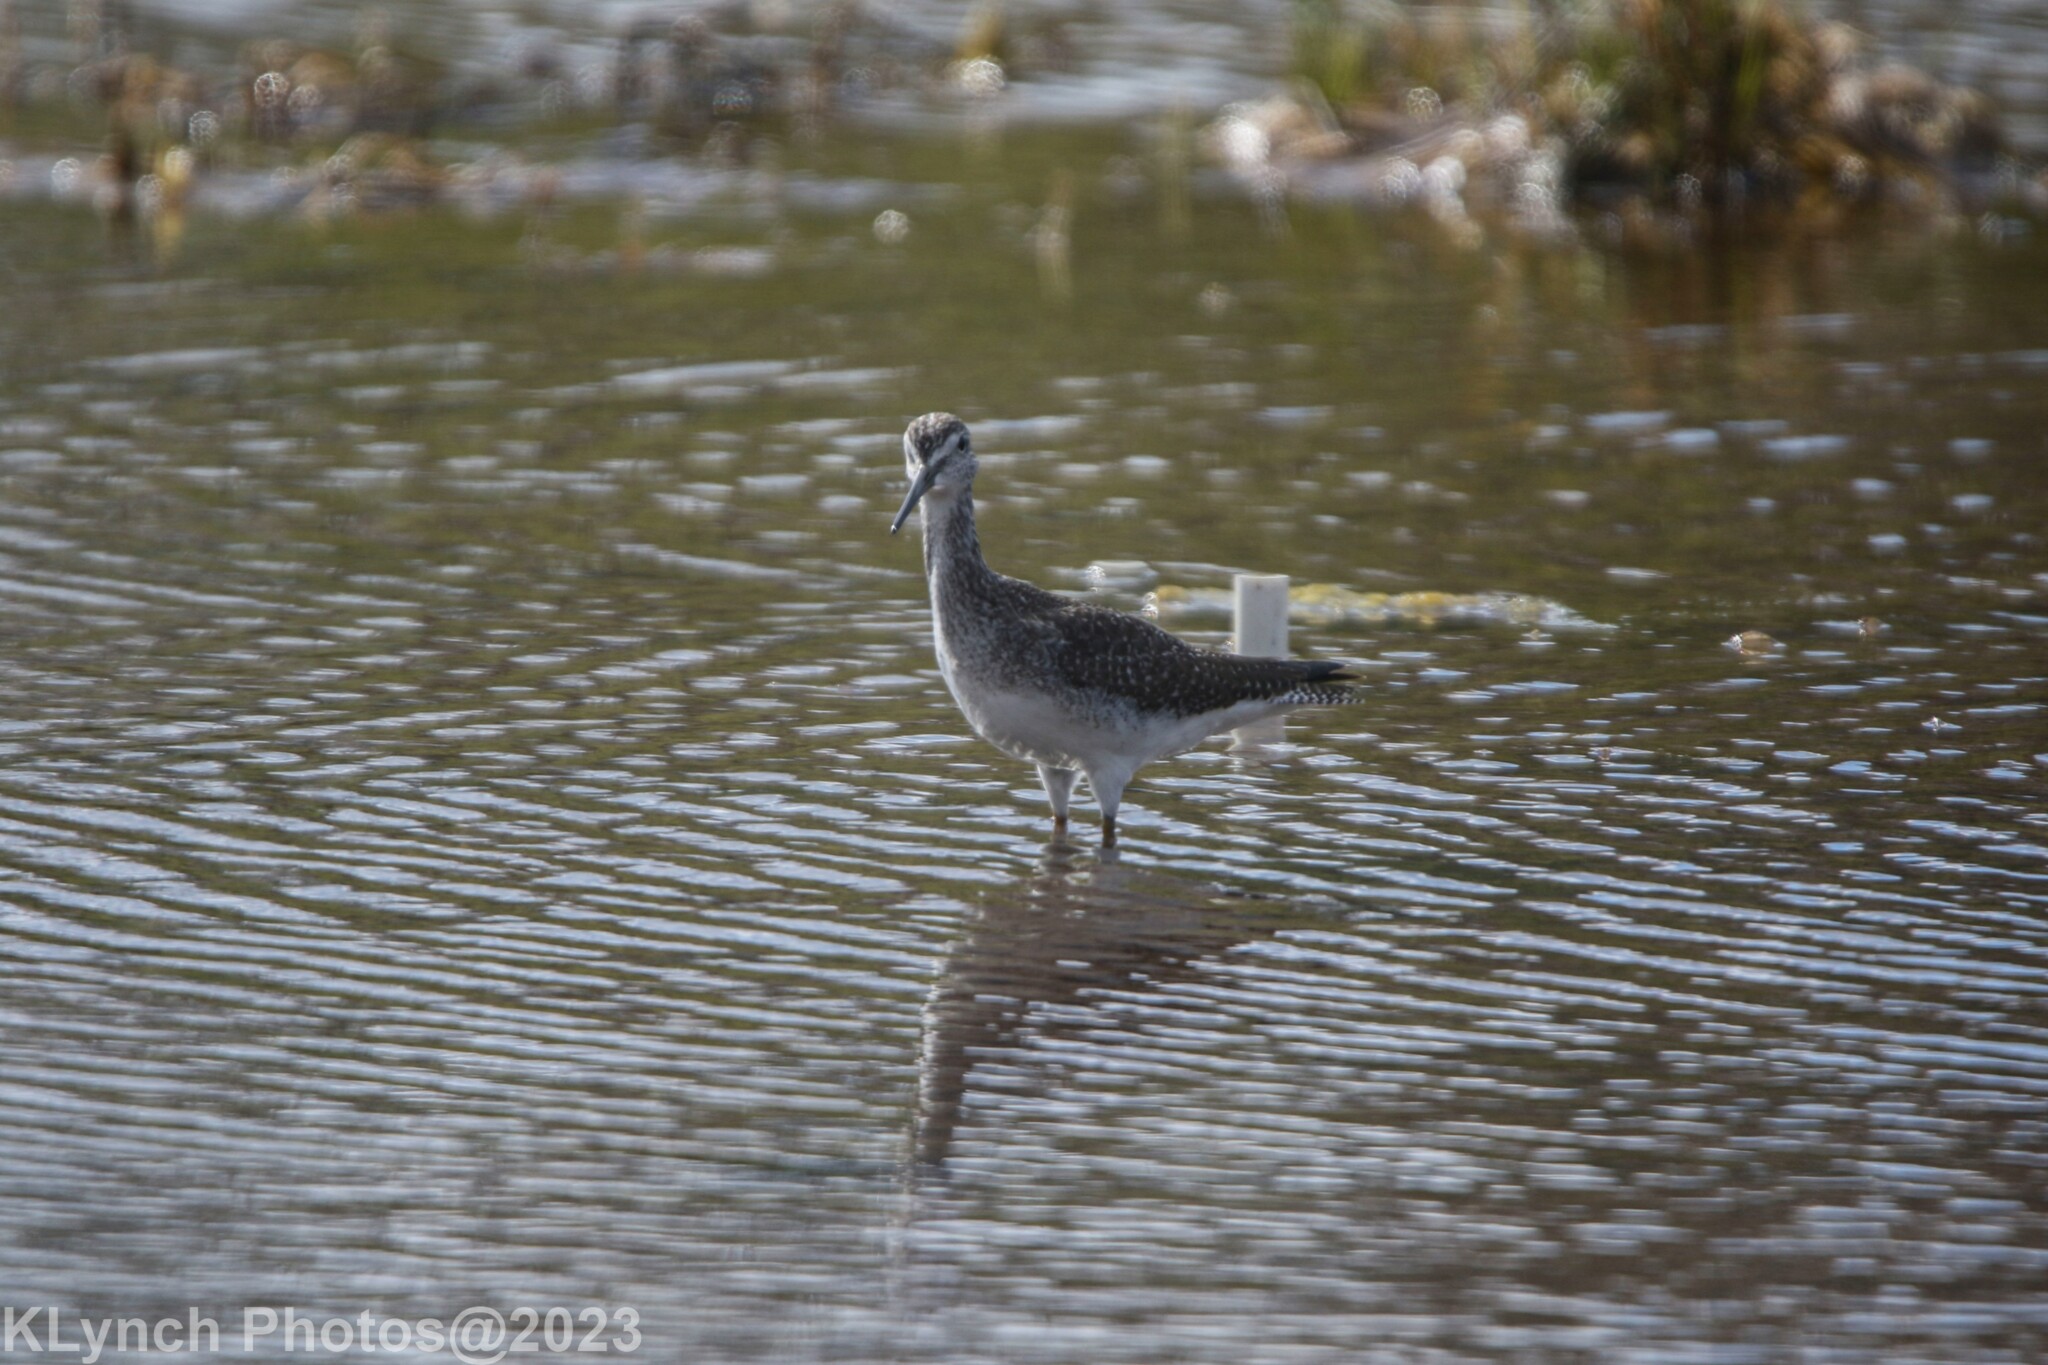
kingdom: Animalia
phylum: Chordata
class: Aves
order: Charadriiformes
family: Scolopacidae
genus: Tringa
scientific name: Tringa melanoleuca
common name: Greater yellowlegs
